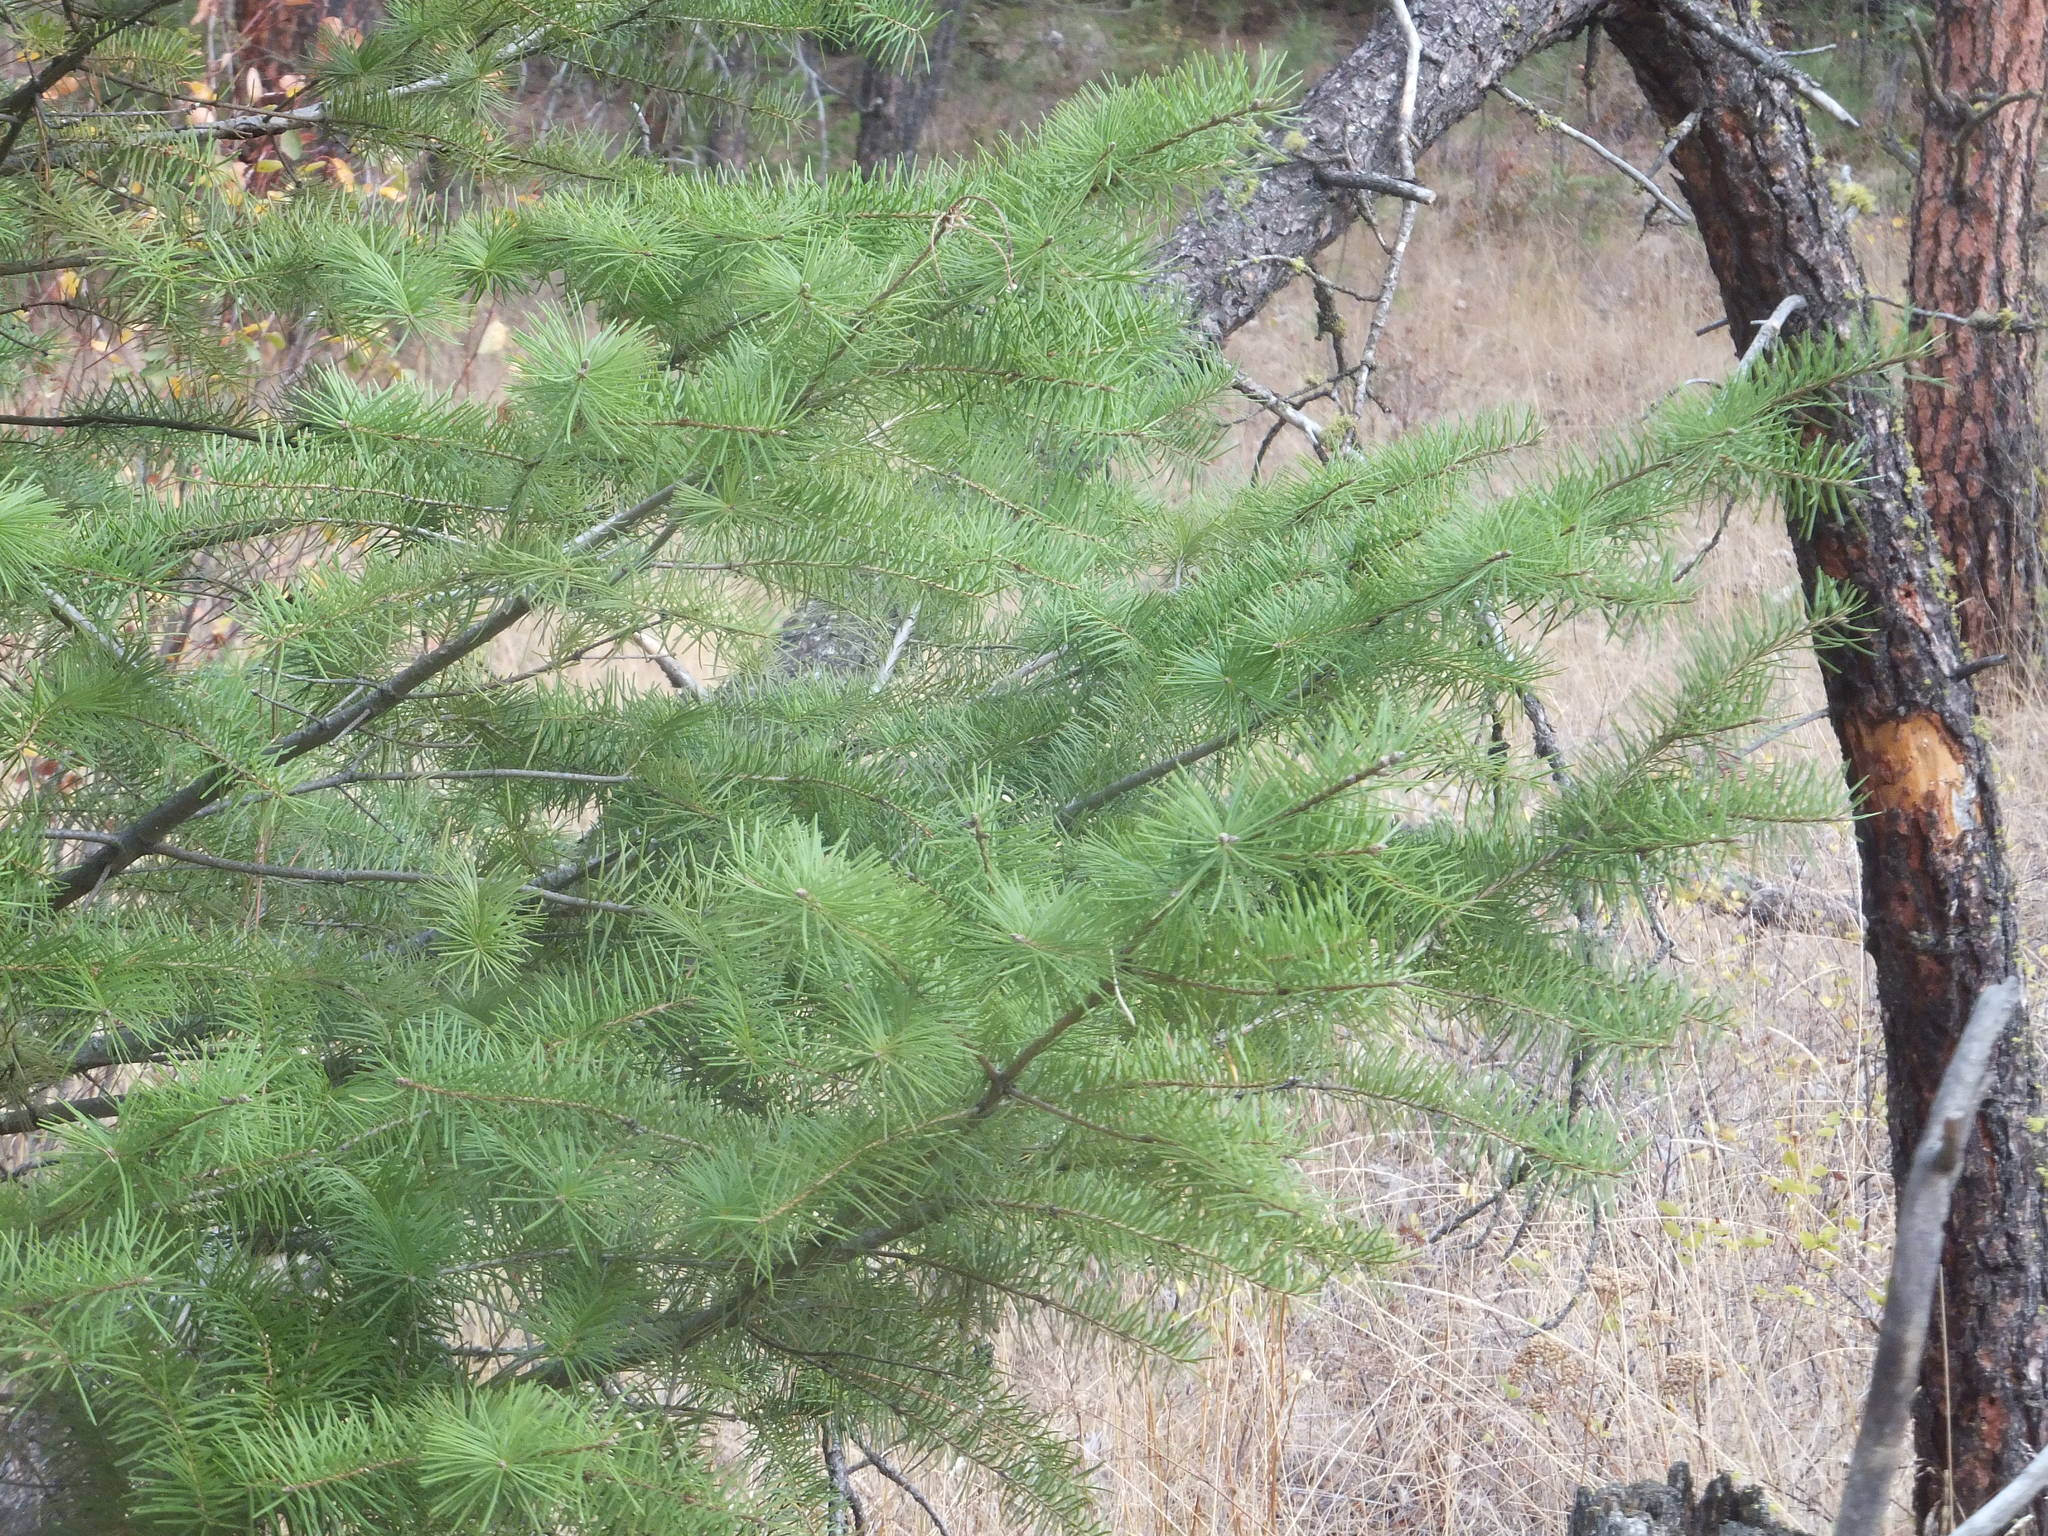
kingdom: Plantae
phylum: Tracheophyta
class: Pinopsida
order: Pinales
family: Pinaceae
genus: Pseudotsuga
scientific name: Pseudotsuga menziesii
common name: Douglas fir
